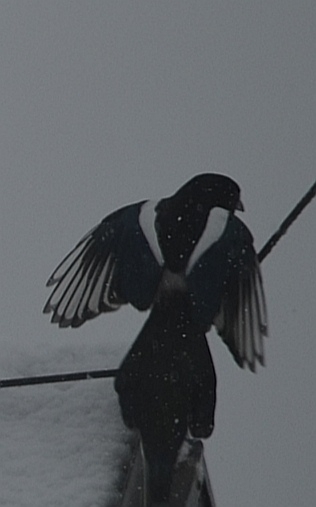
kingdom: Animalia
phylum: Chordata
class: Aves
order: Passeriformes
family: Corvidae
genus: Pica
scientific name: Pica pica
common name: Eurasian magpie
